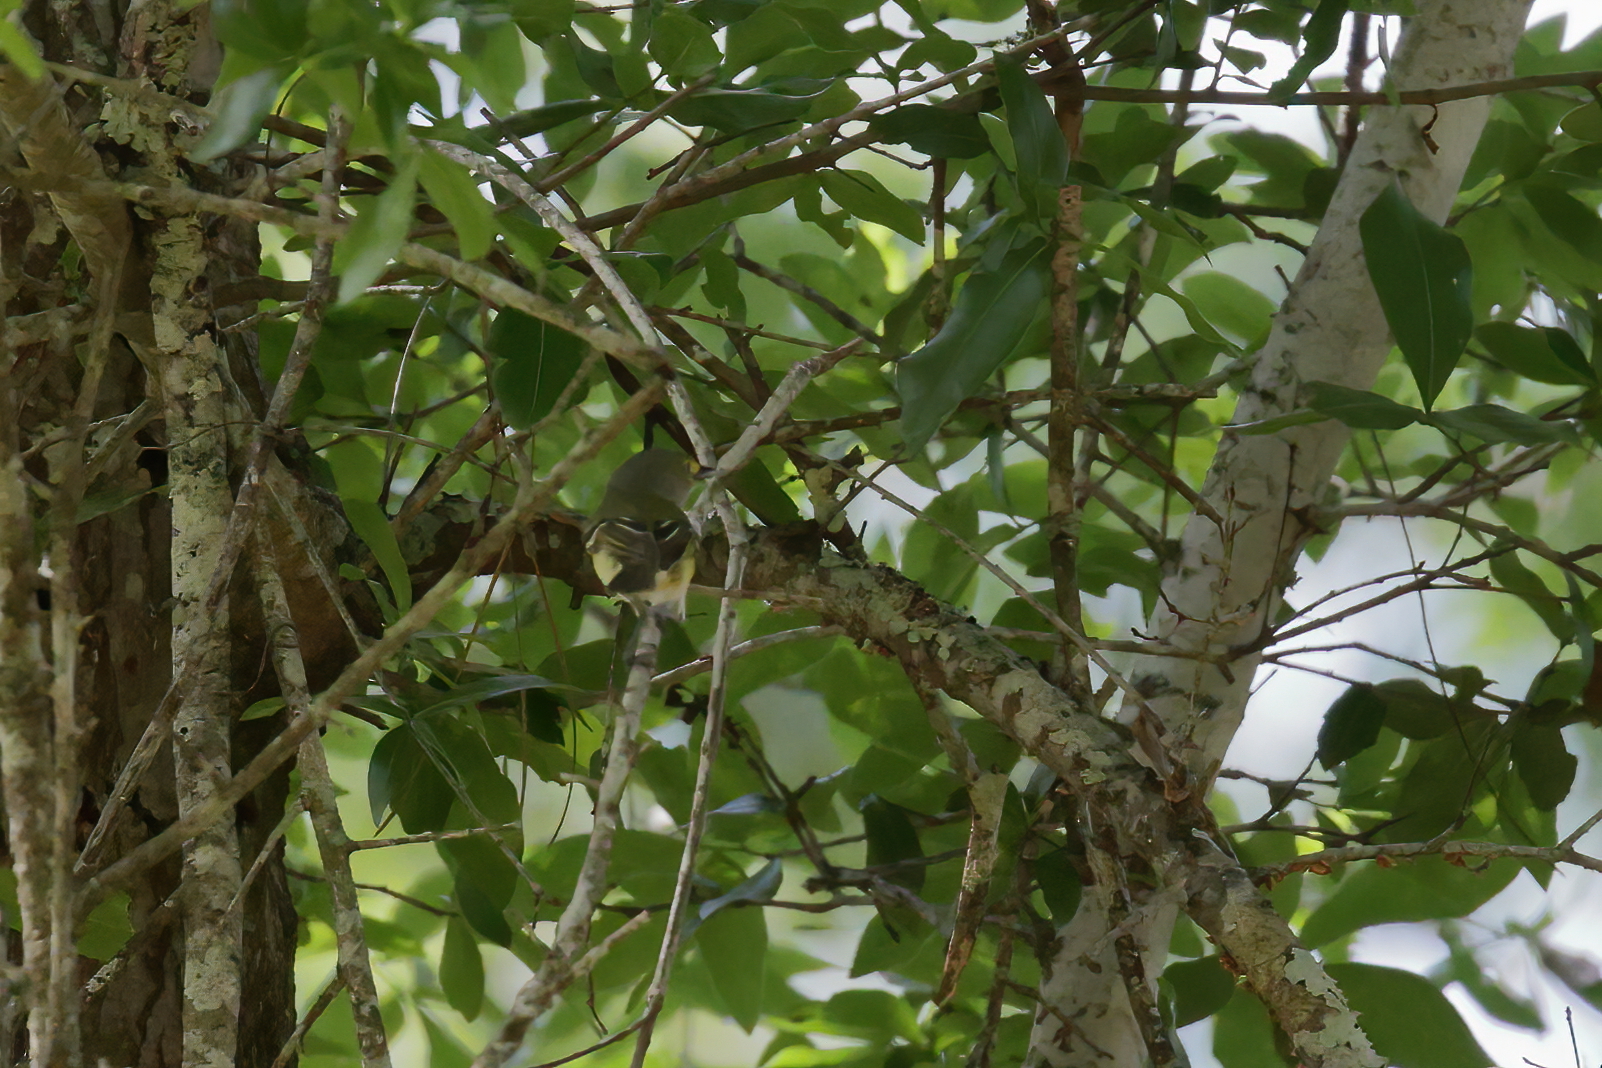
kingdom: Animalia
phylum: Chordata
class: Aves
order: Passeriformes
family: Vireonidae
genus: Vireo
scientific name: Vireo griseus
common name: White-eyed vireo
